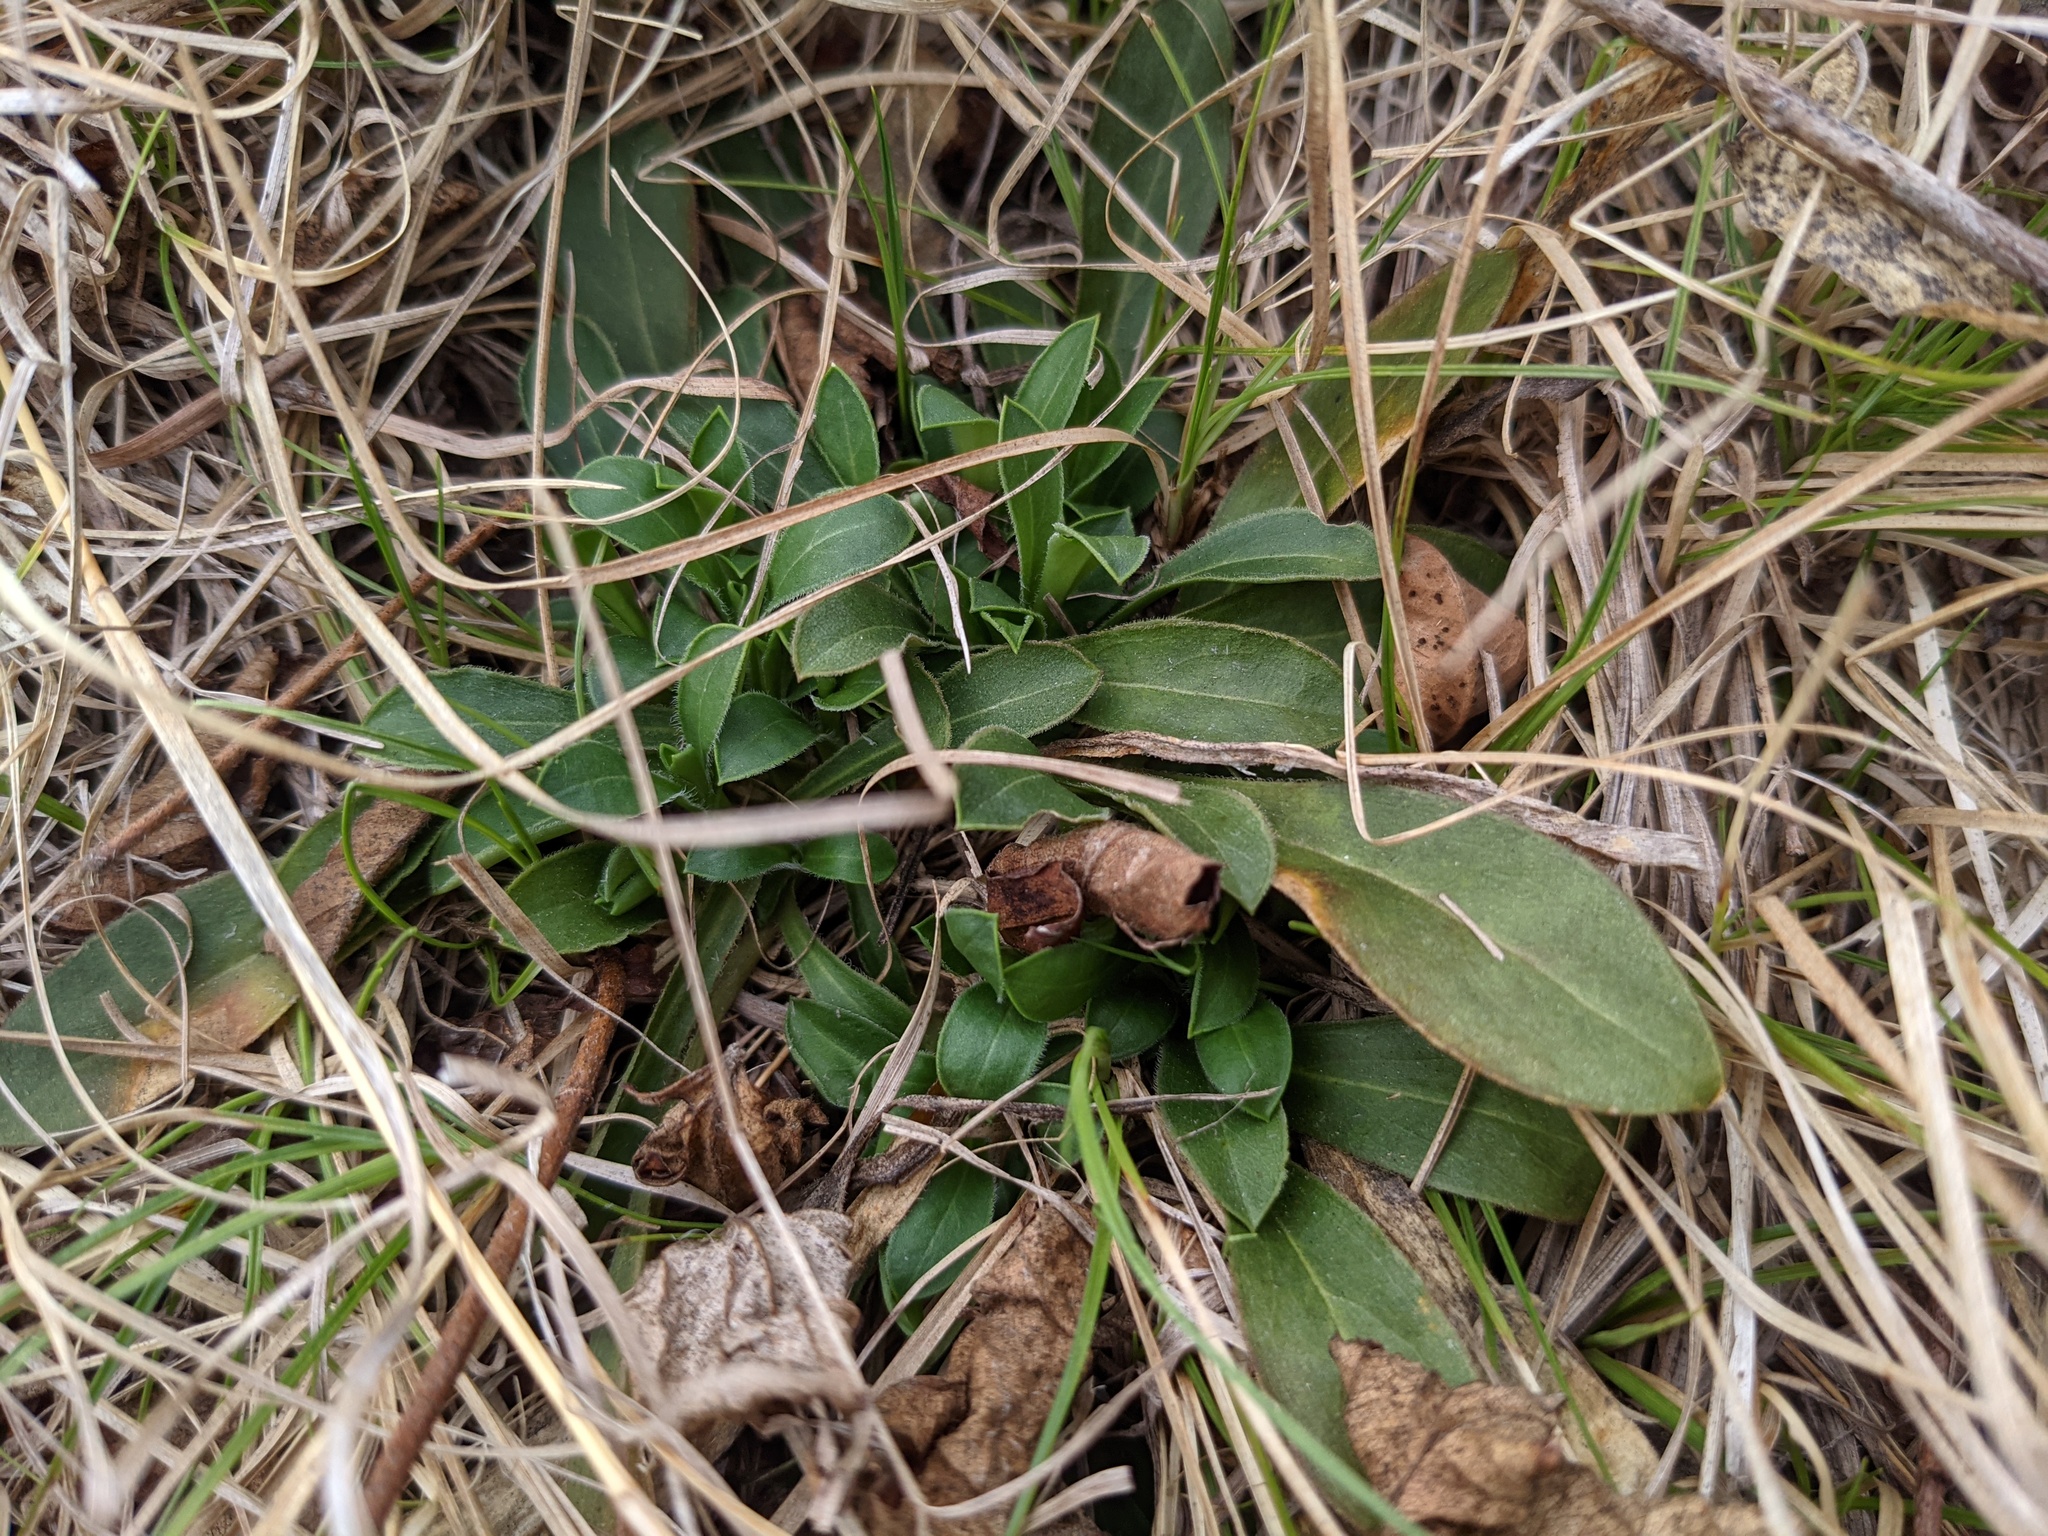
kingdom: Plantae
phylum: Tracheophyta
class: Magnoliopsida
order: Caryophyllales
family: Caryophyllaceae
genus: Silene
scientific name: Silene caroliniana
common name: Sticky catchfly
